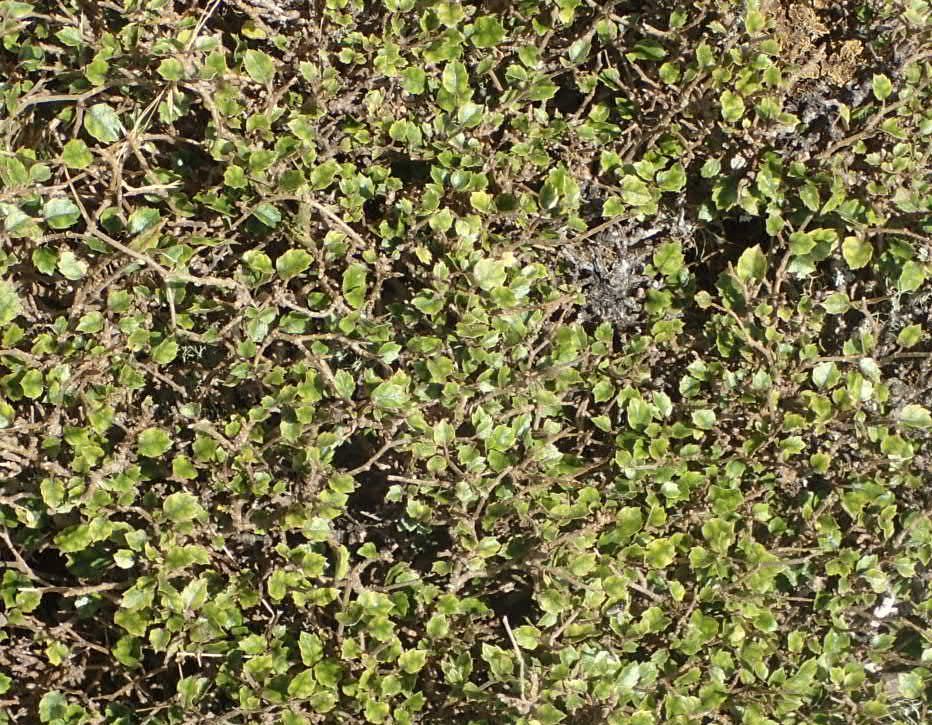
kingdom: Plantae
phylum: Tracheophyta
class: Magnoliopsida
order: Asterales
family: Rousseaceae
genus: Carpodetus
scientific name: Carpodetus serratus
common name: White mapau
